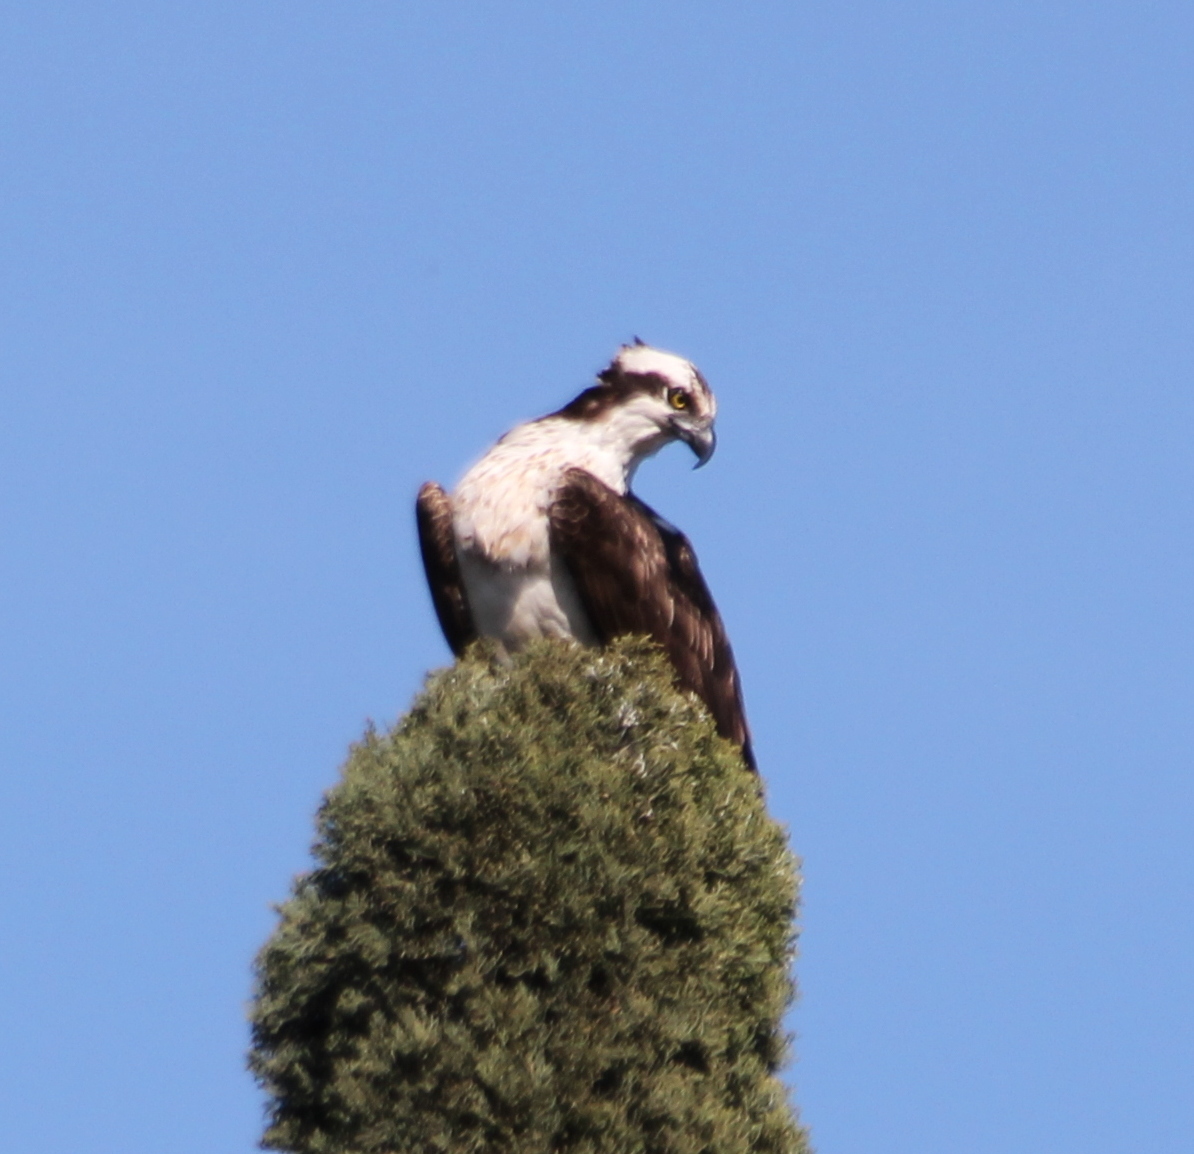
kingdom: Animalia
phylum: Chordata
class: Aves
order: Accipitriformes
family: Pandionidae
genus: Pandion
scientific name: Pandion haliaetus
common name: Osprey
